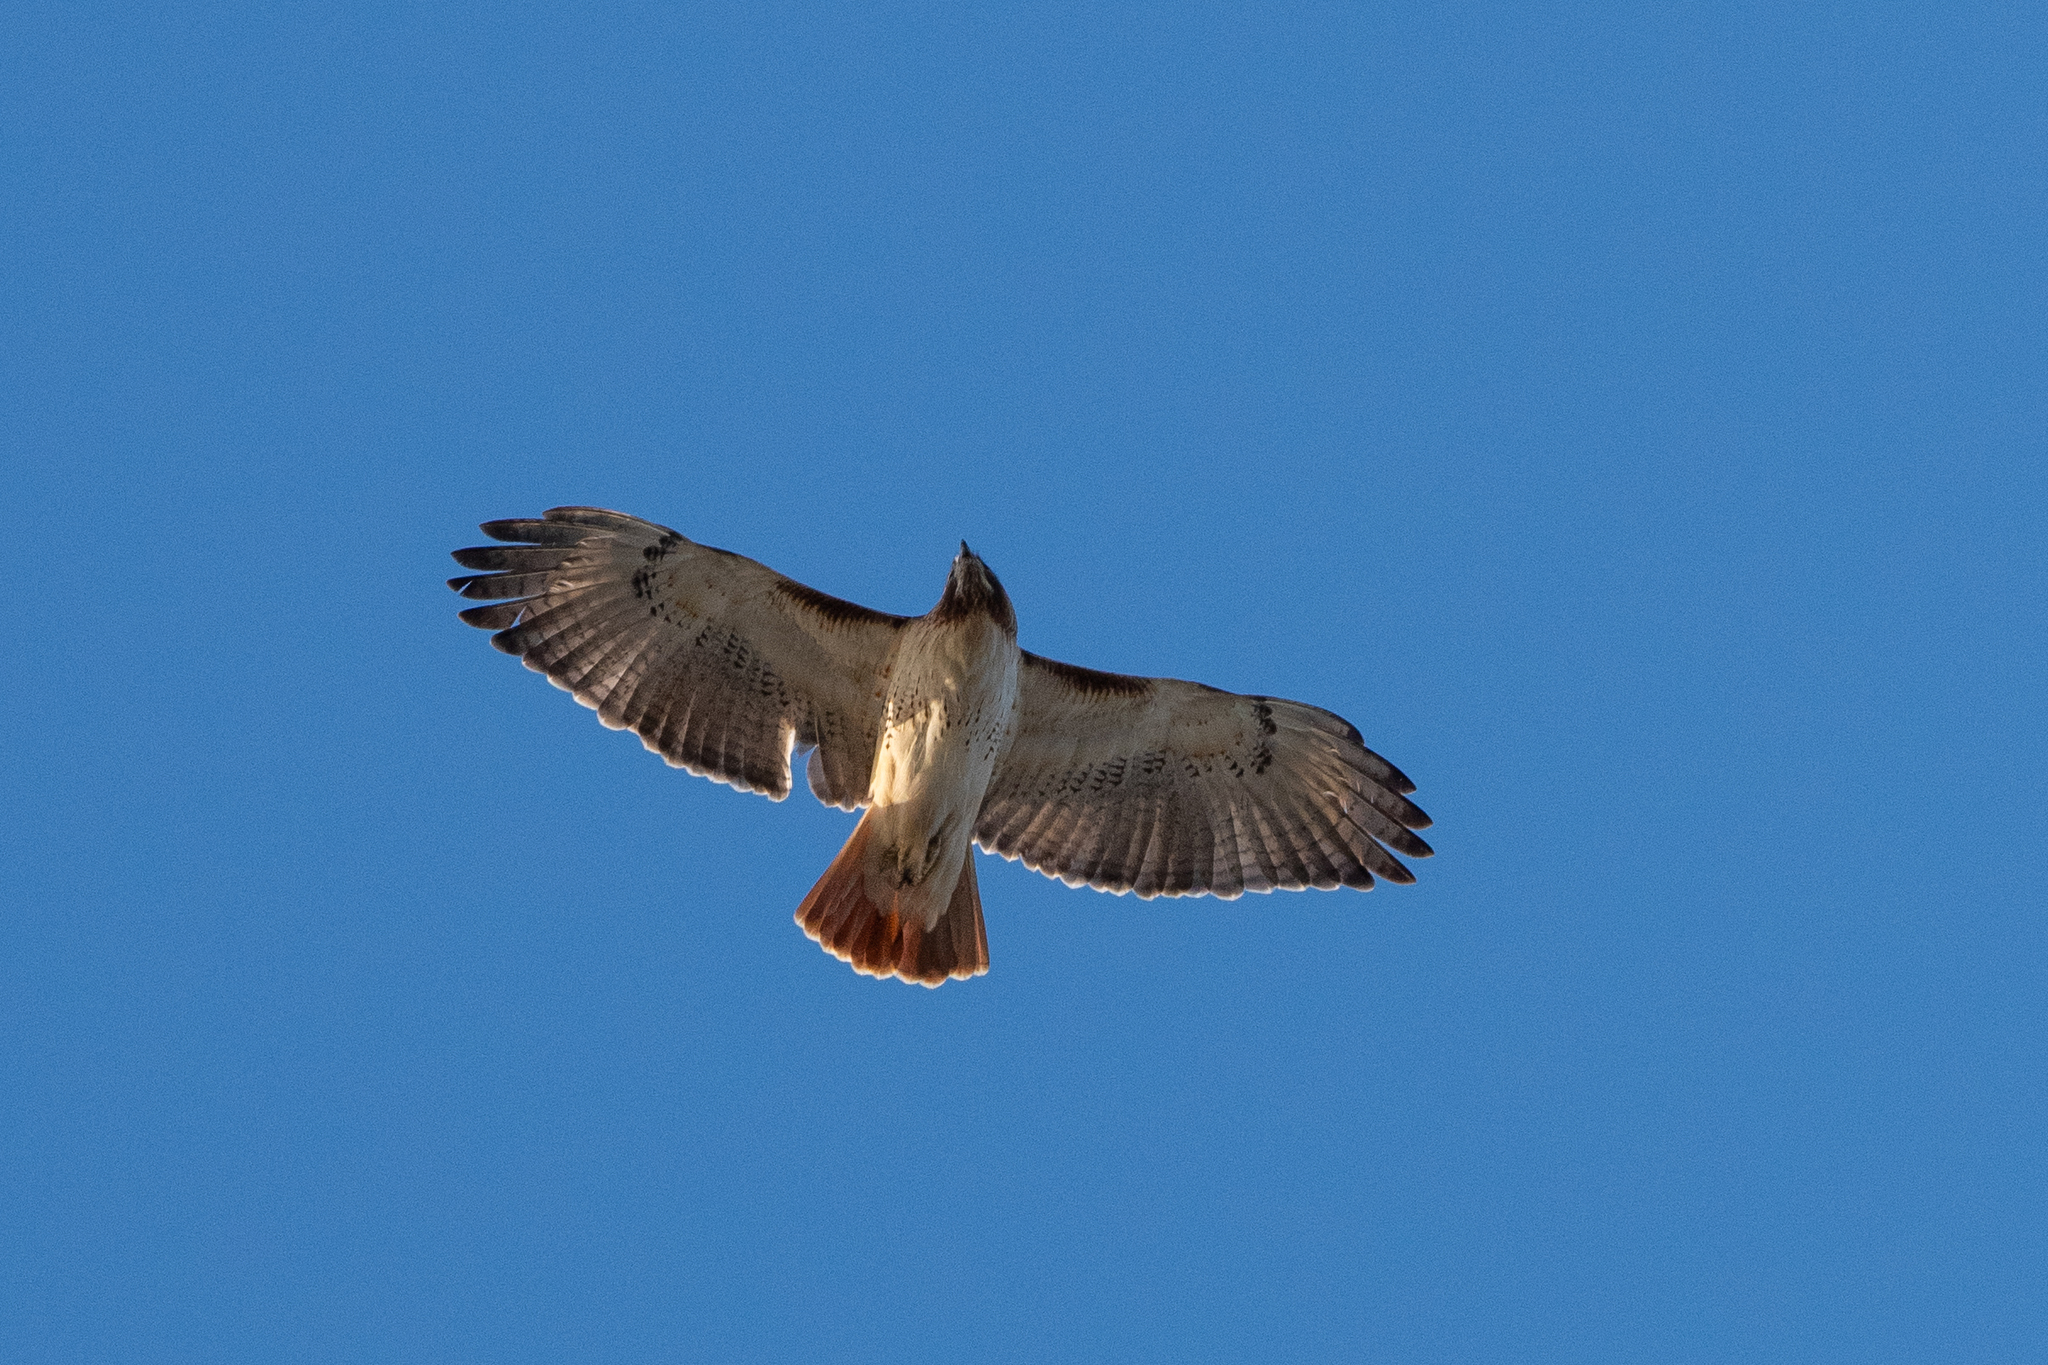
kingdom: Animalia
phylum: Chordata
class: Aves
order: Accipitriformes
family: Accipitridae
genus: Buteo
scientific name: Buteo jamaicensis
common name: Red-tailed hawk
